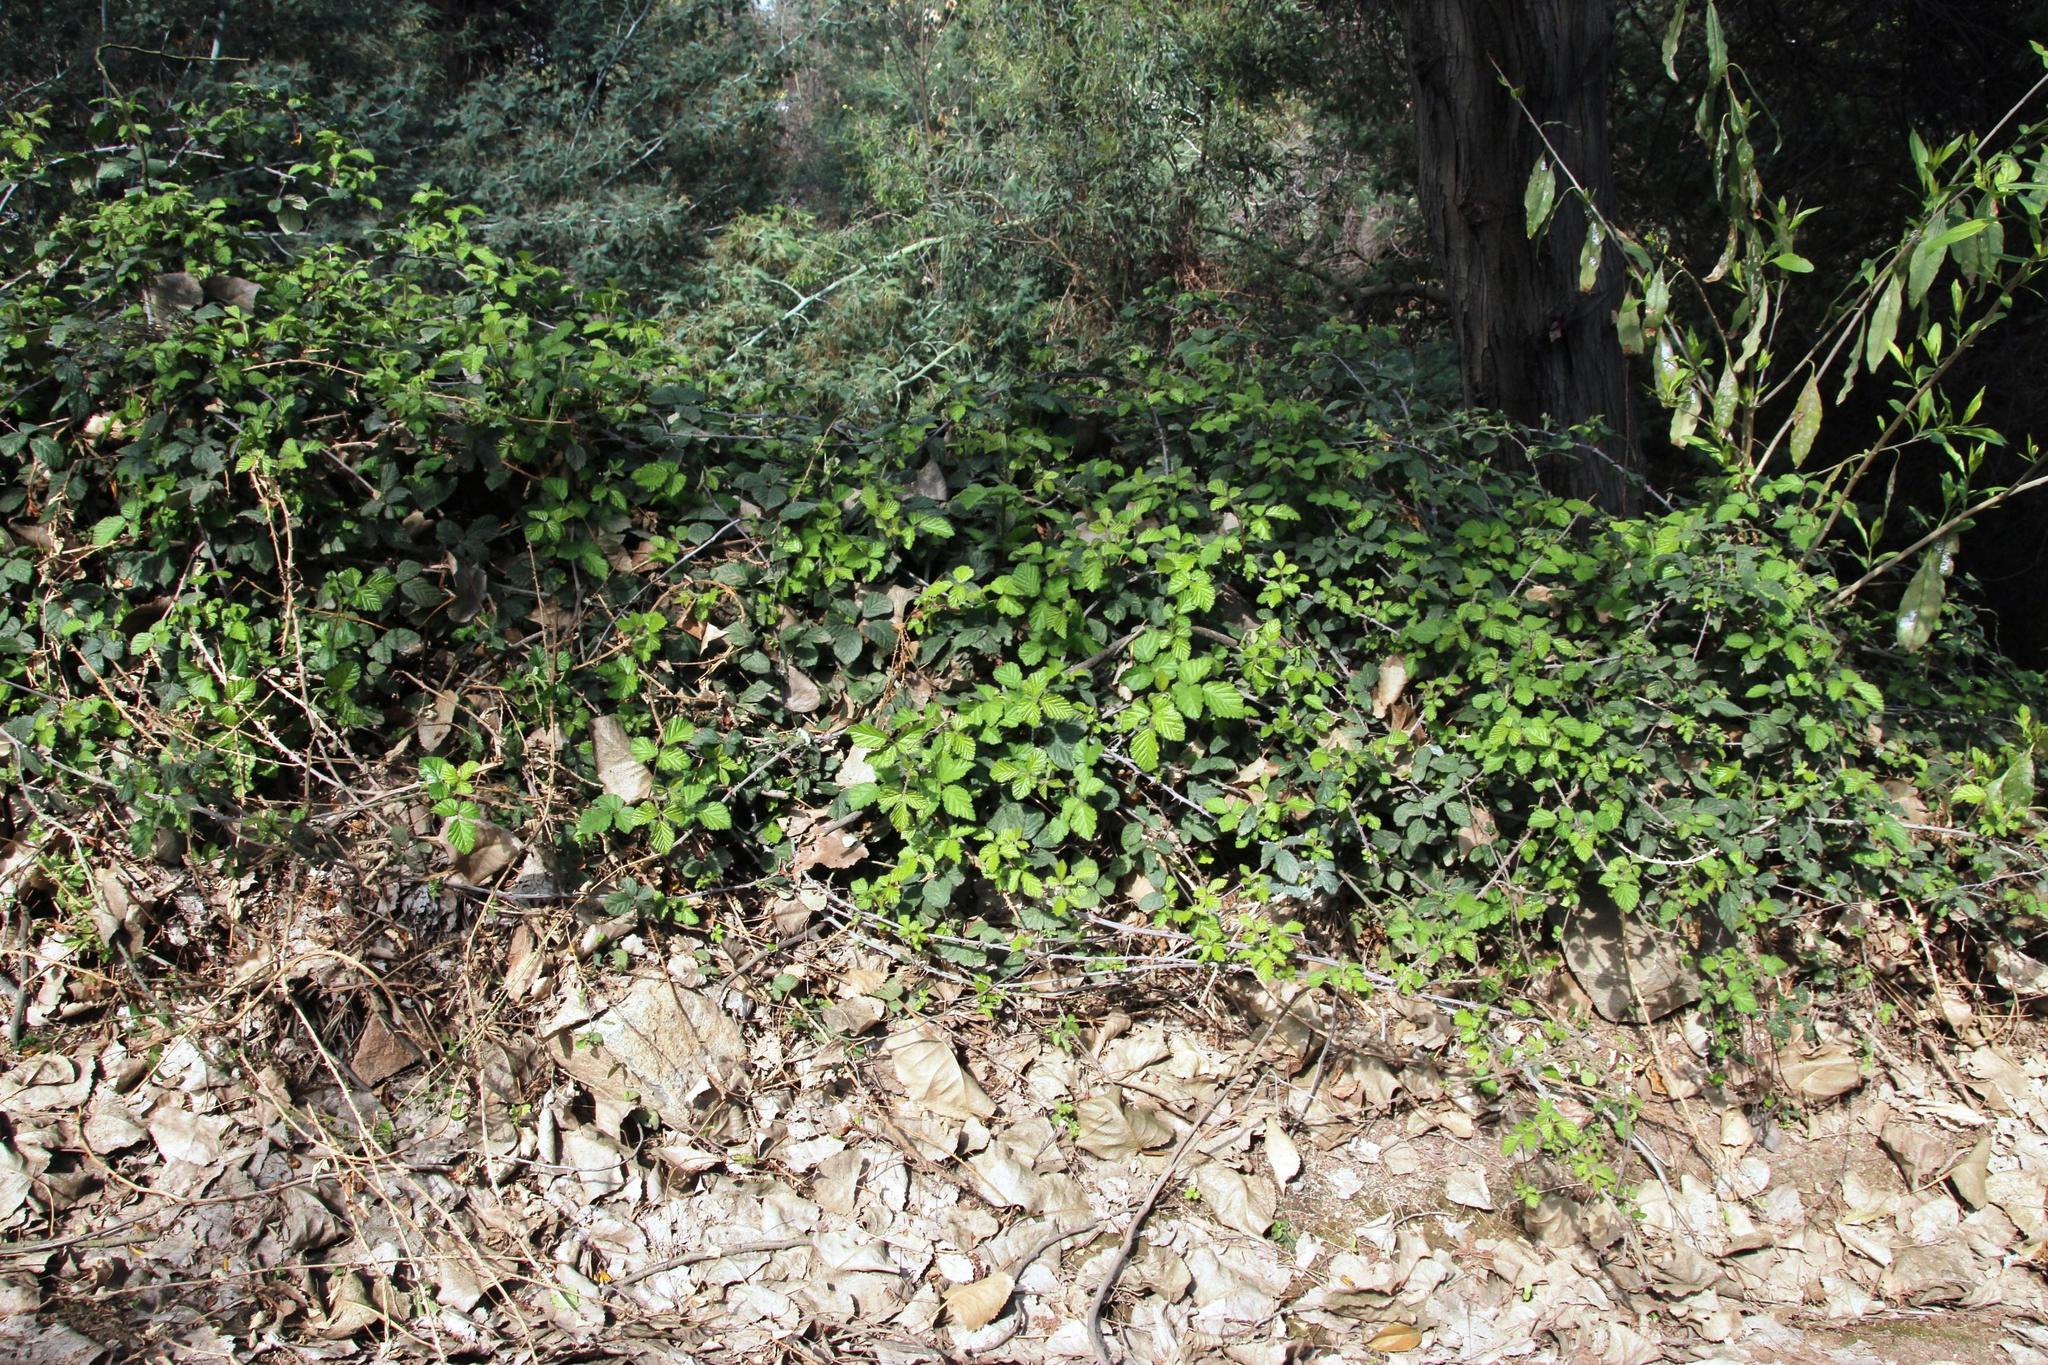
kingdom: Plantae
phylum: Tracheophyta
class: Magnoliopsida
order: Rosales
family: Rosaceae
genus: Rubus
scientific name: Rubus ulmifolius
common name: Elmleaf blackberry
